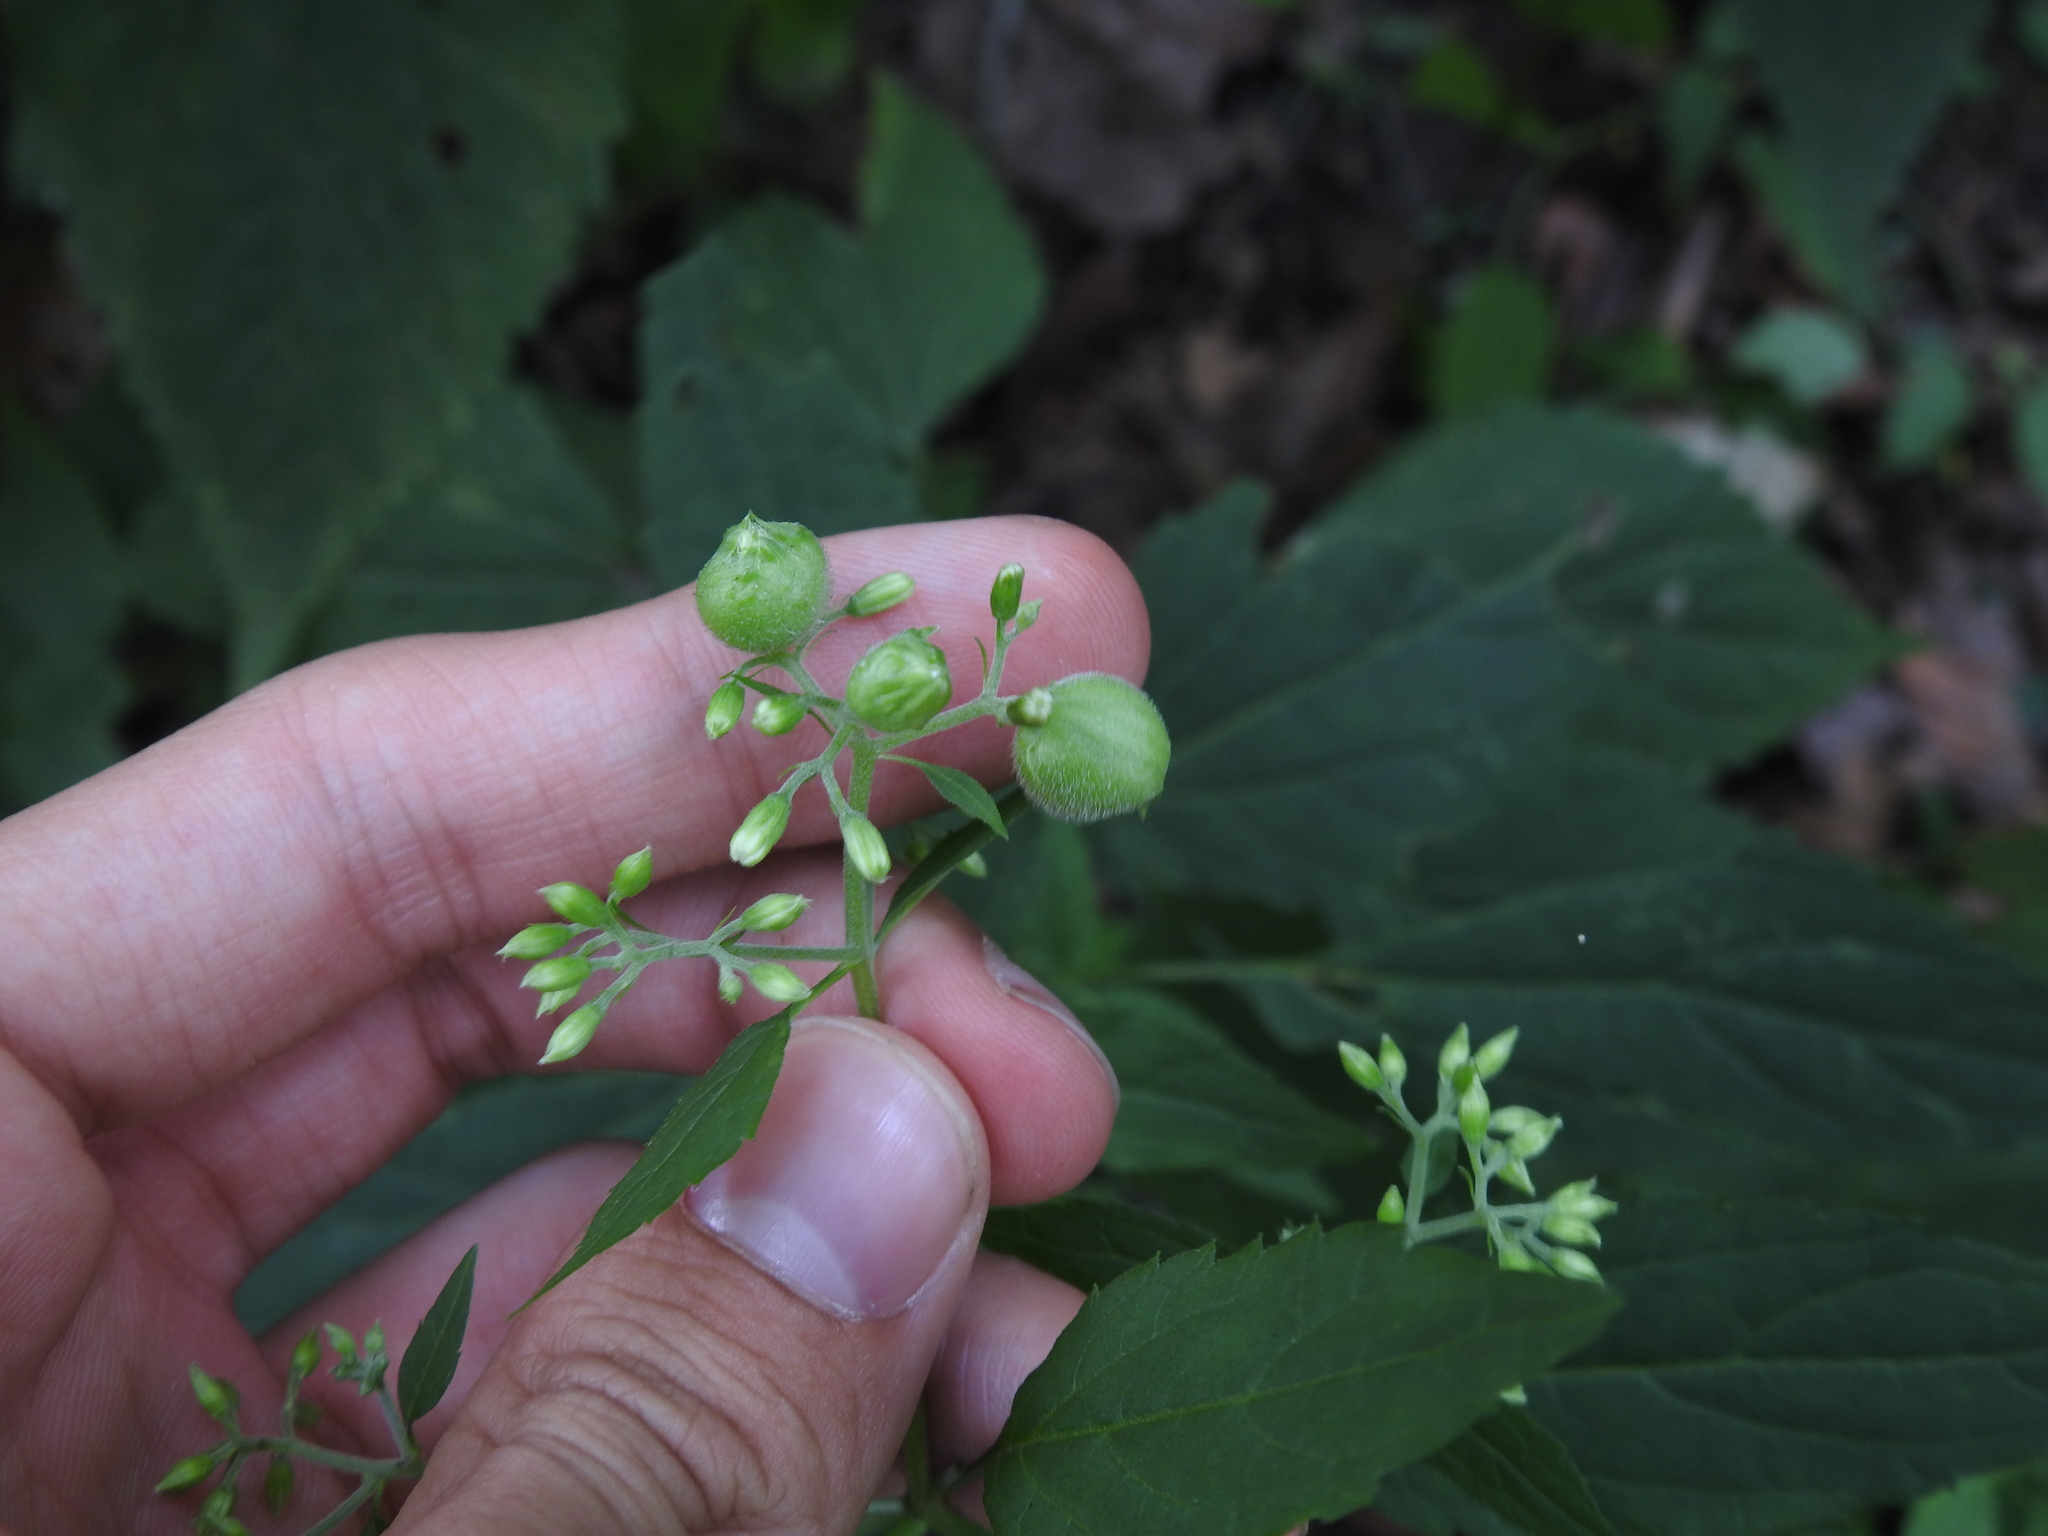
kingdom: Animalia
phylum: Arthropoda
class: Insecta
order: Diptera
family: Cecidomyiidae
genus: Schizomyia
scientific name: Schizomyia eupatoriflorae
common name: Boneset flower gall midge
